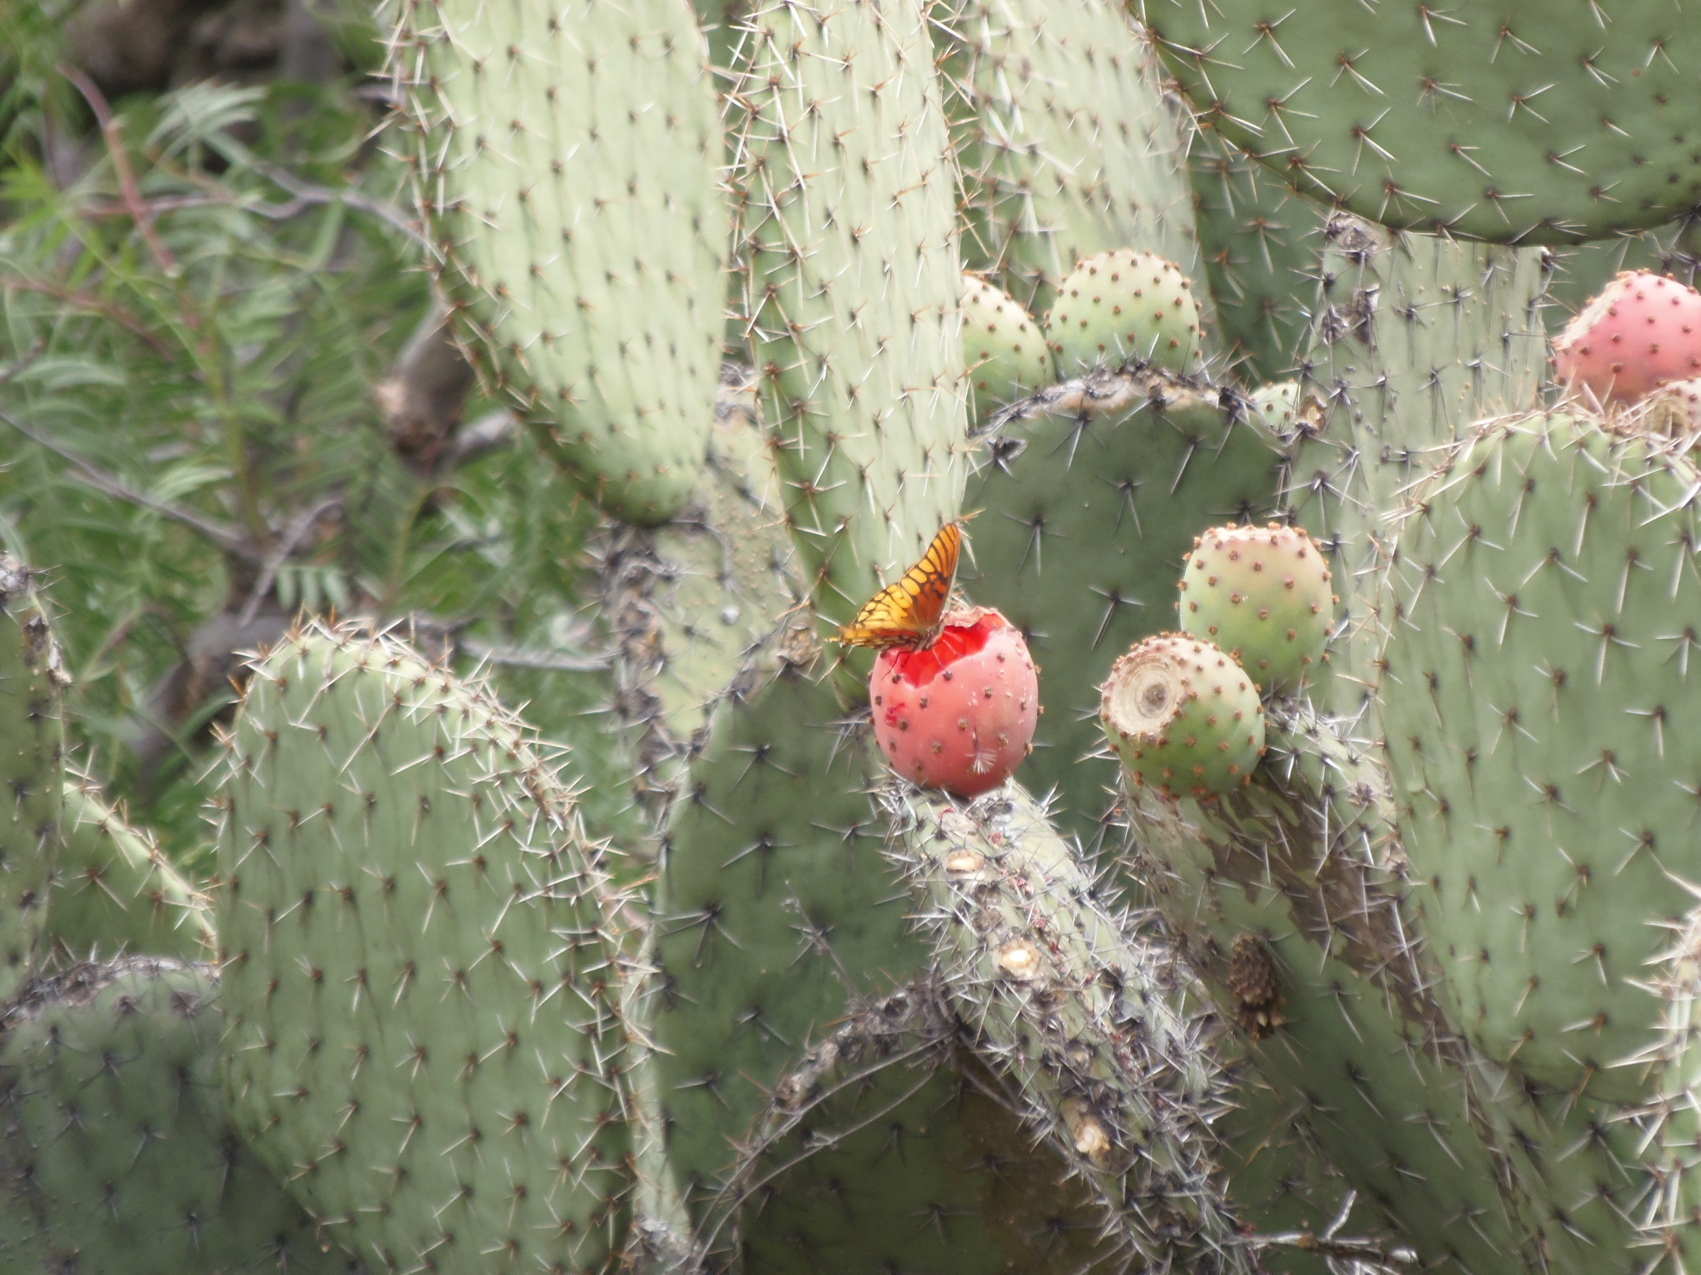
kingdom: Animalia
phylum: Arthropoda
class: Insecta
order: Lepidoptera
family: Nymphalidae
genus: Dione
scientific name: Dione moneta
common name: Mexican silverspot
